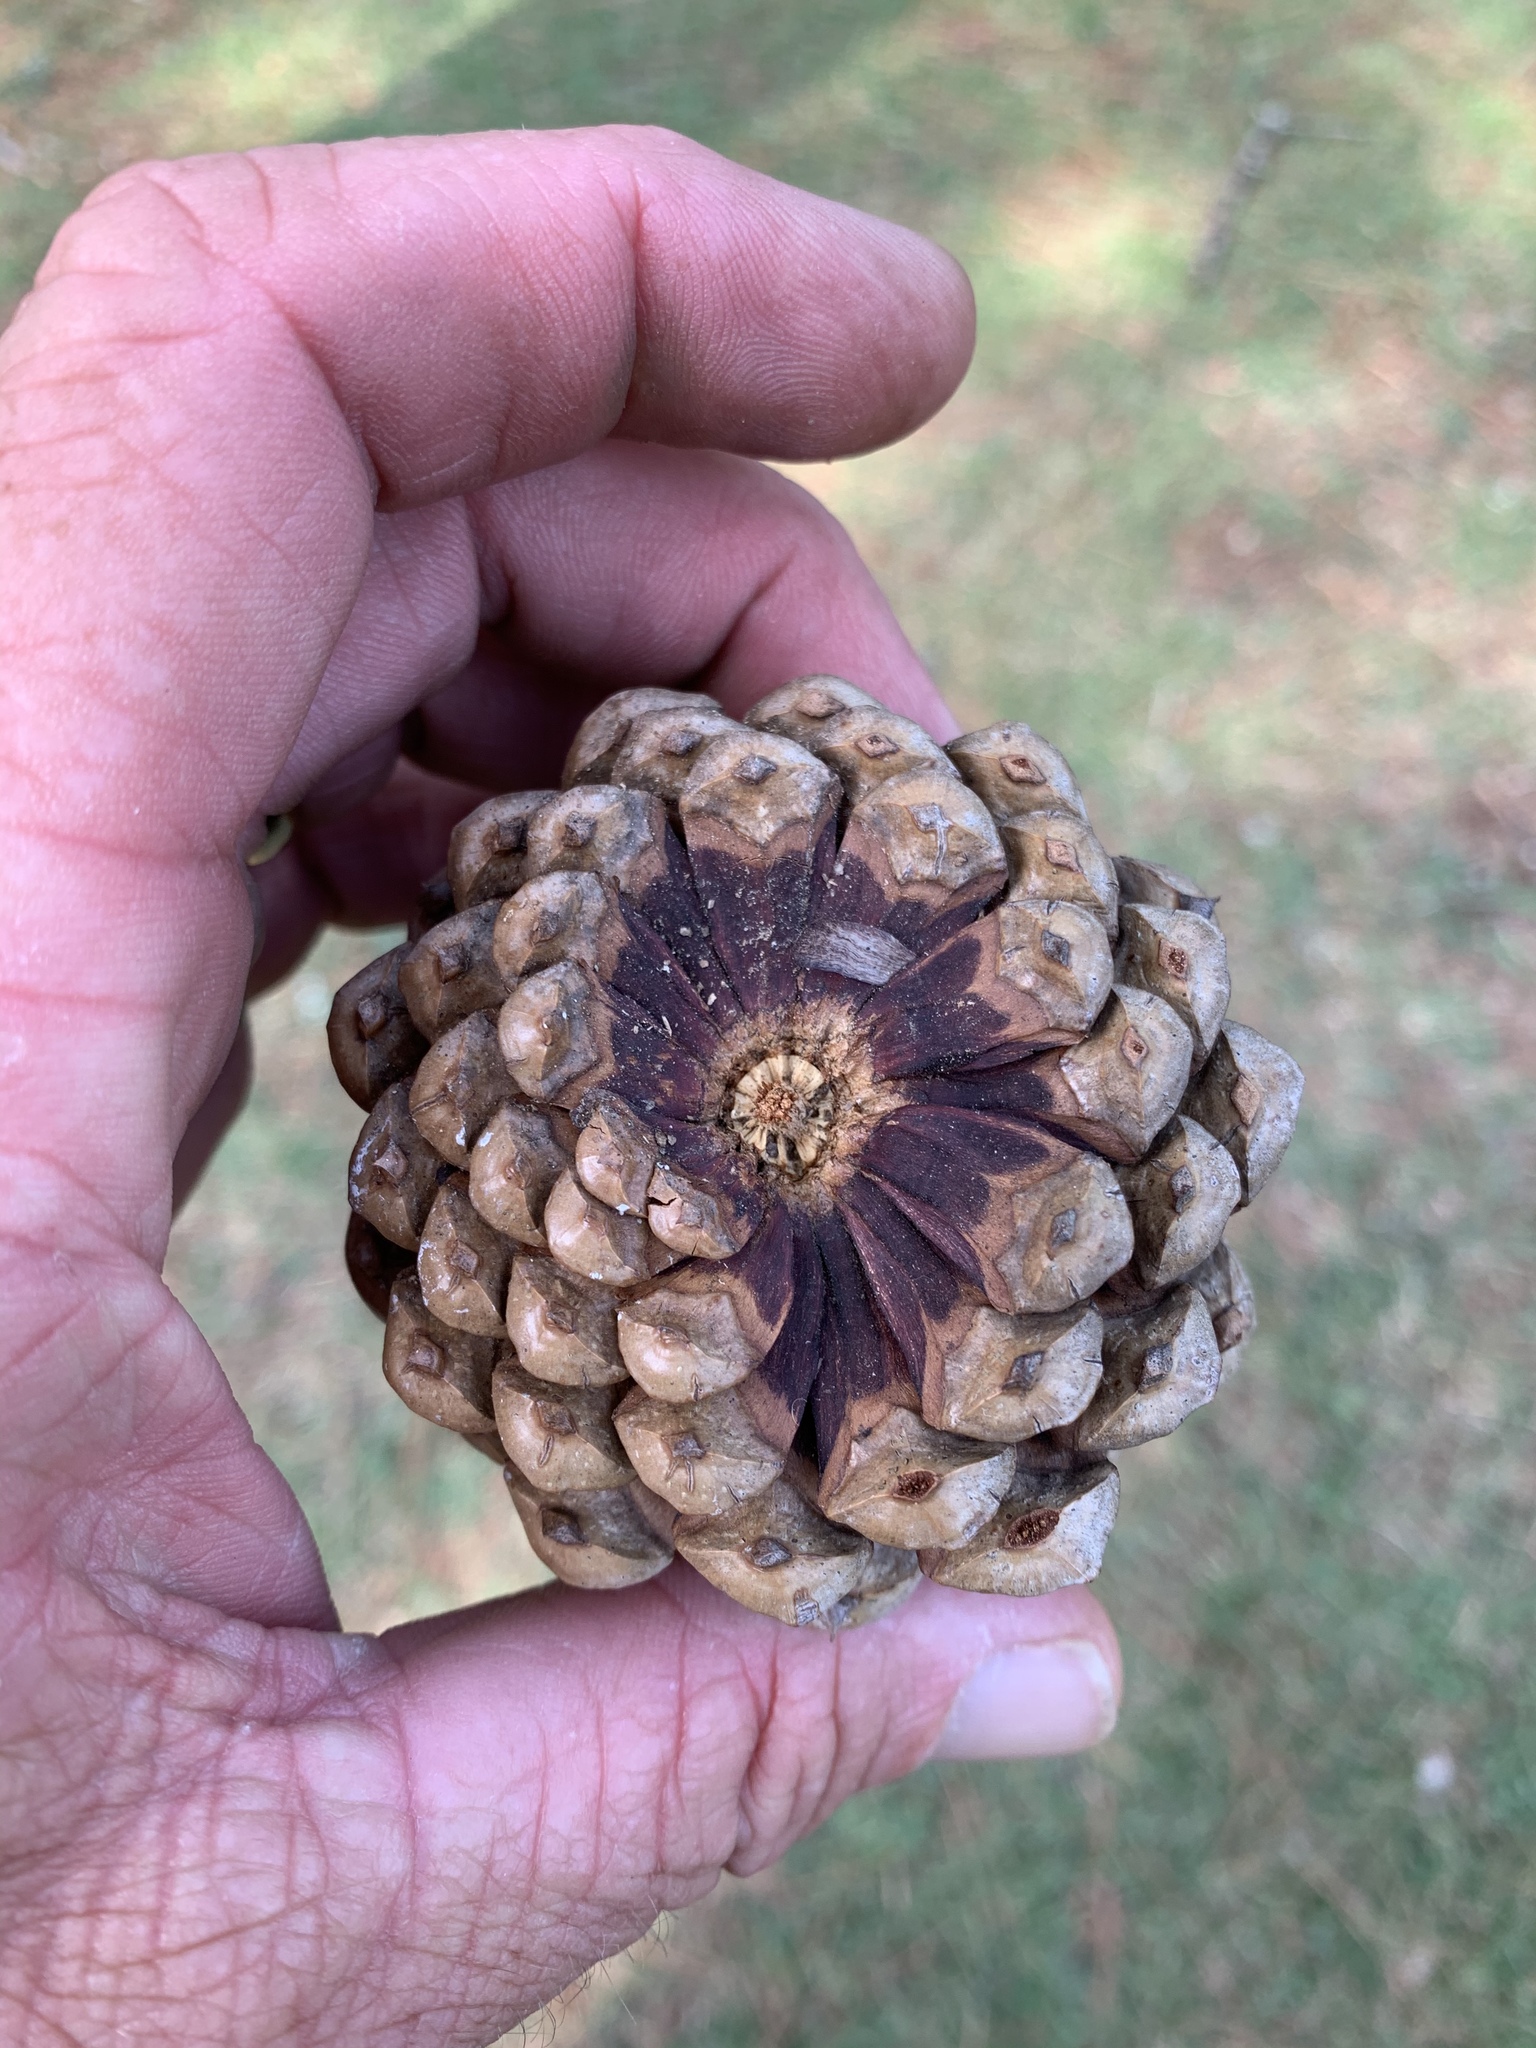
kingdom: Plantae
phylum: Tracheophyta
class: Pinopsida
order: Pinales
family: Pinaceae
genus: Pinus
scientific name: Pinus taeda
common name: Loblolly pine
